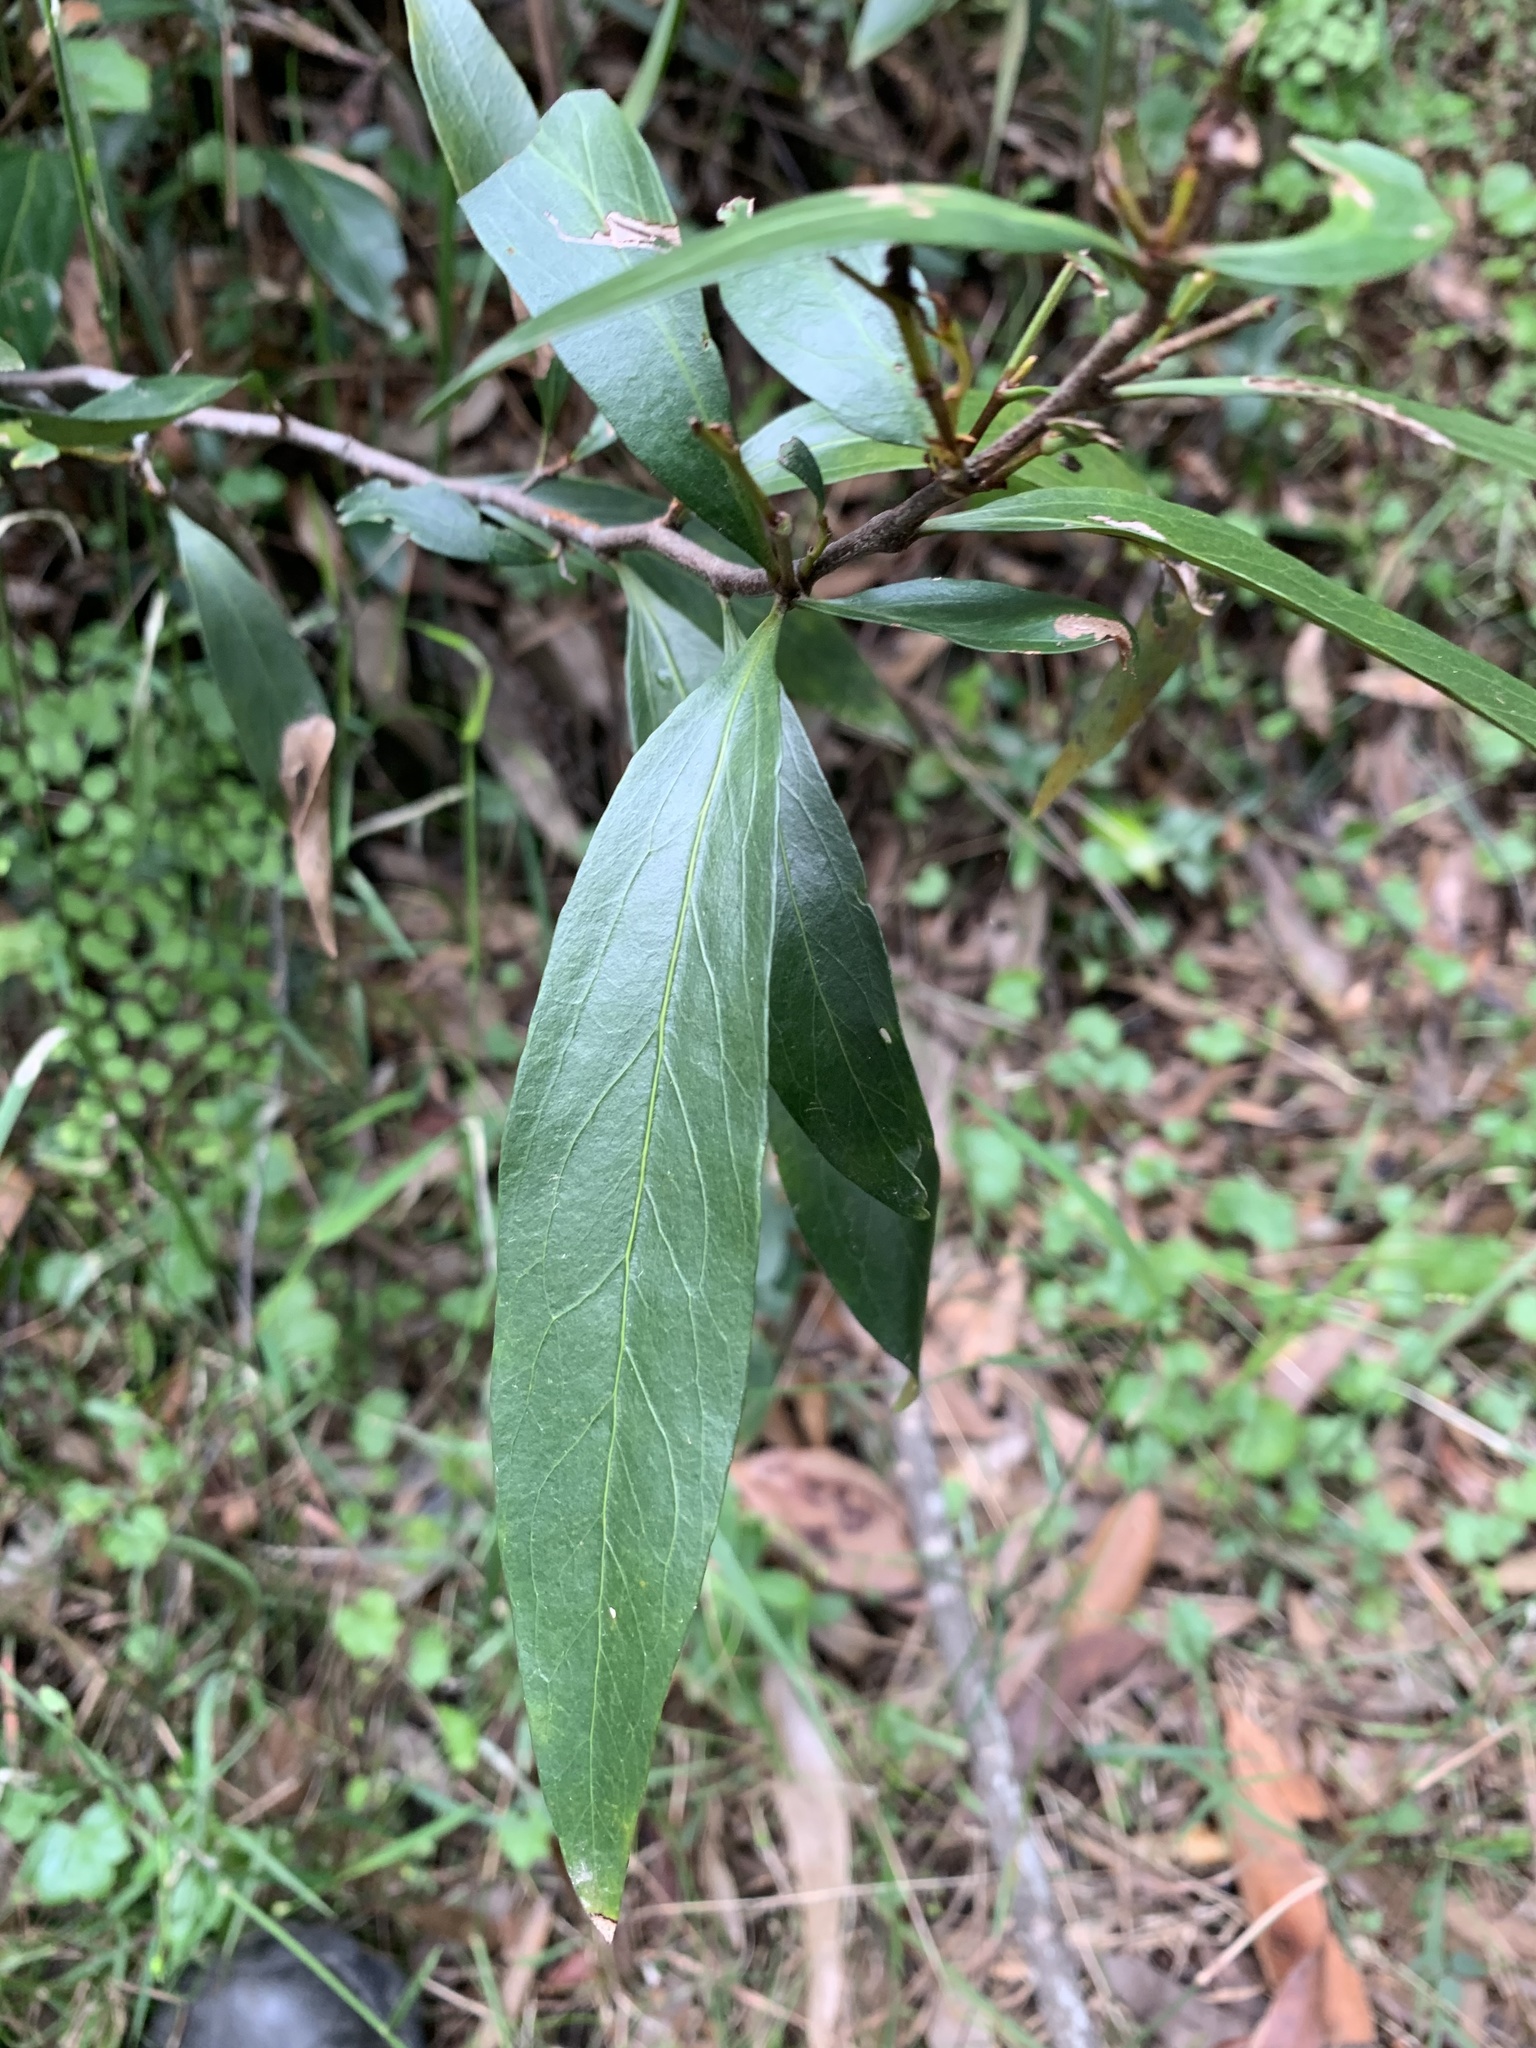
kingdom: Plantae
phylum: Tracheophyta
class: Magnoliopsida
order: Proteales
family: Proteaceae
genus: Stenocarpus
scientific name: Stenocarpus salignus
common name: Red silky-oak
